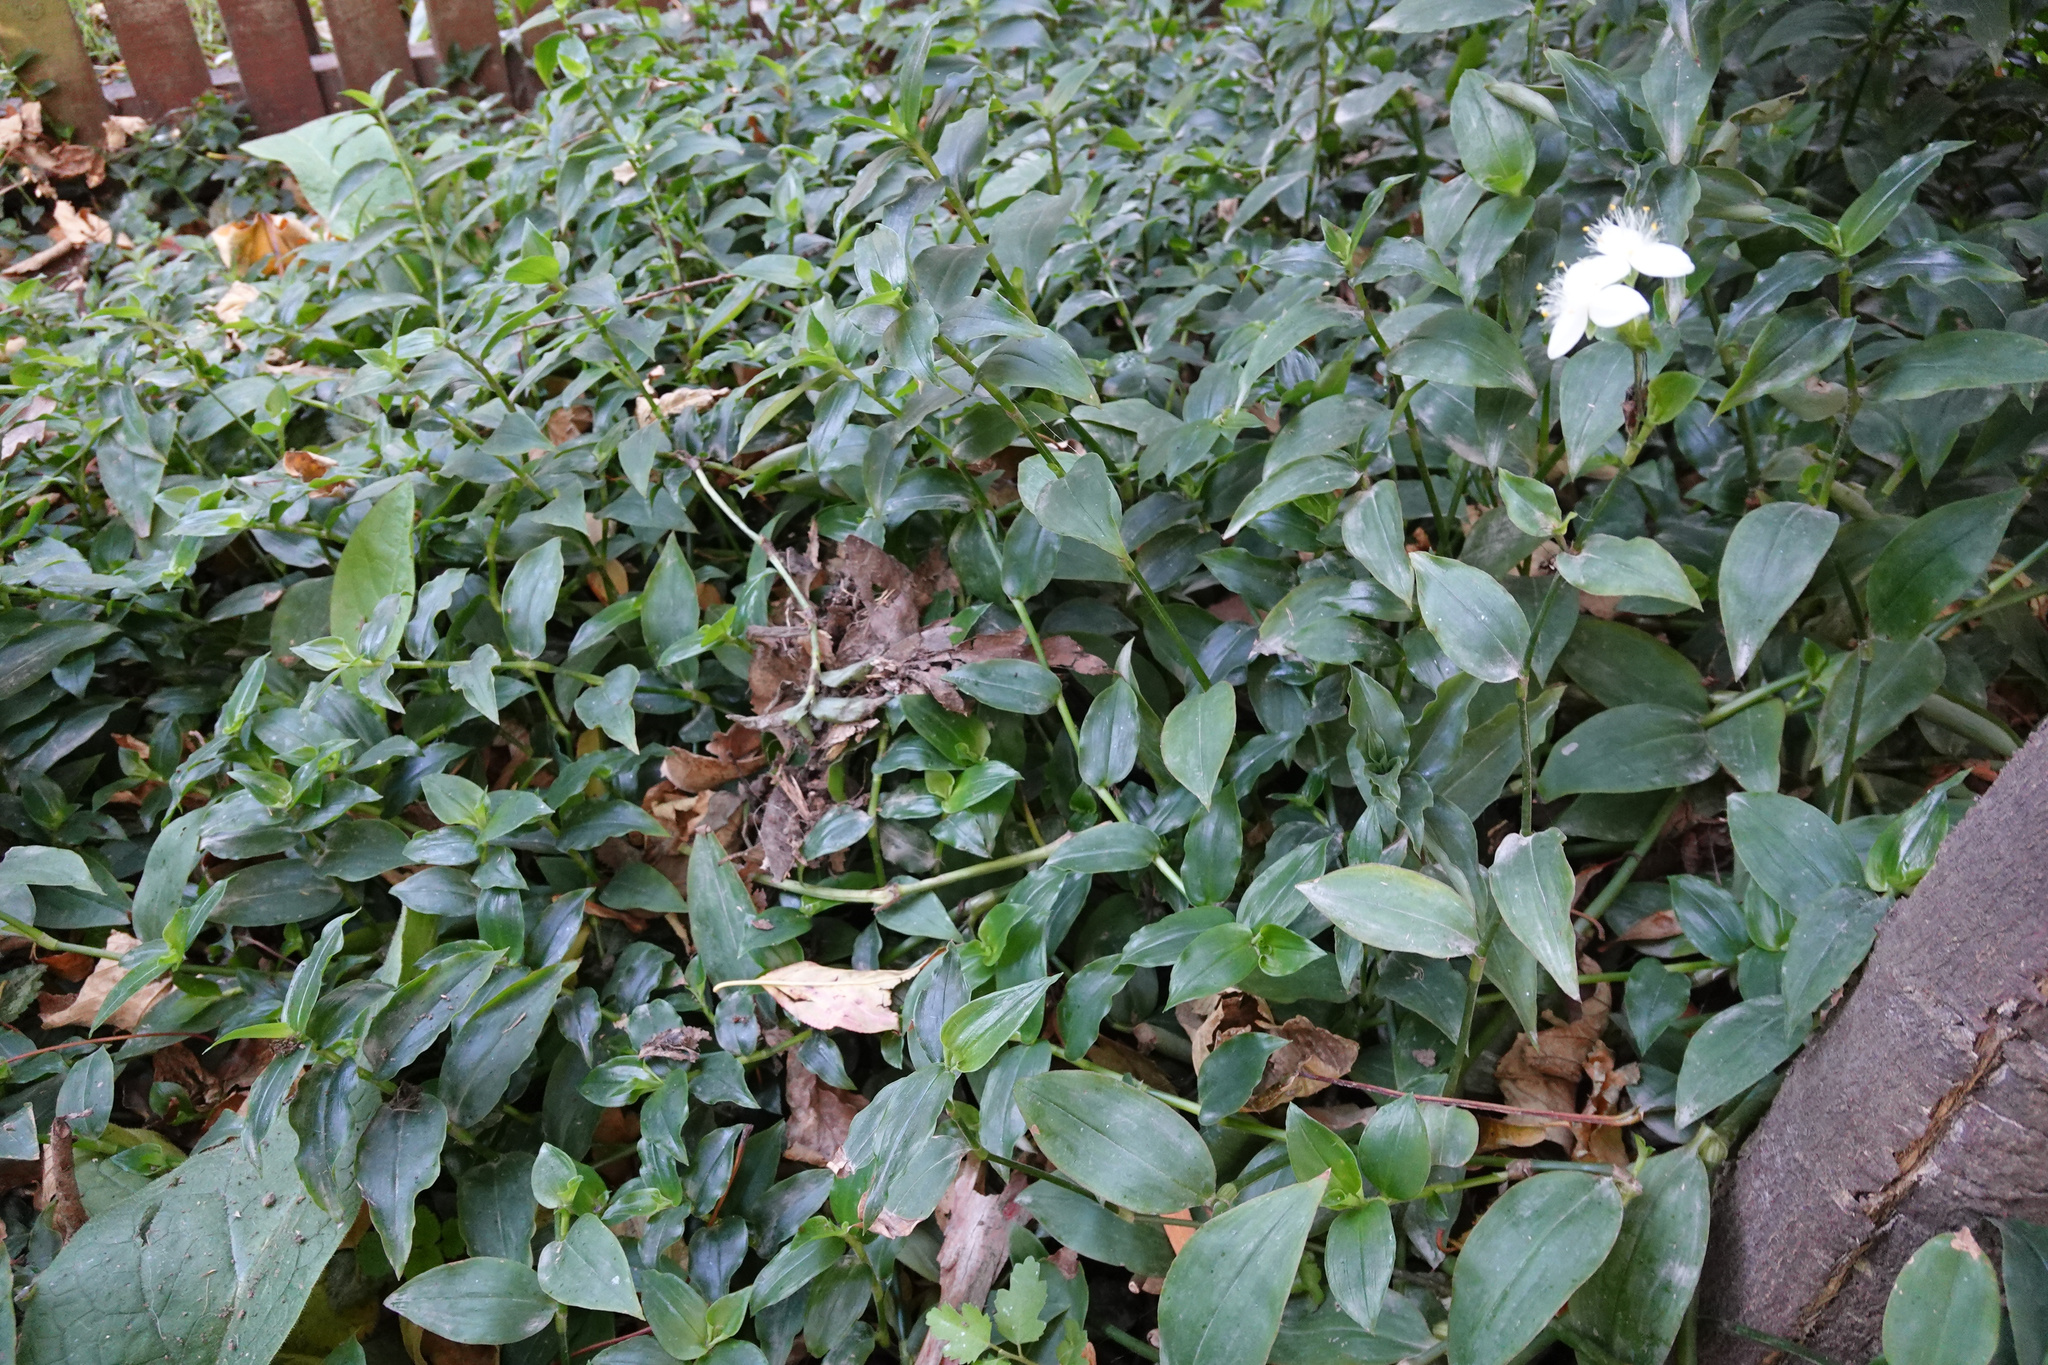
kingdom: Plantae
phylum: Tracheophyta
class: Liliopsida
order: Commelinales
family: Commelinaceae
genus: Tradescantia
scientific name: Tradescantia fluminensis
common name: Wandering-jew
